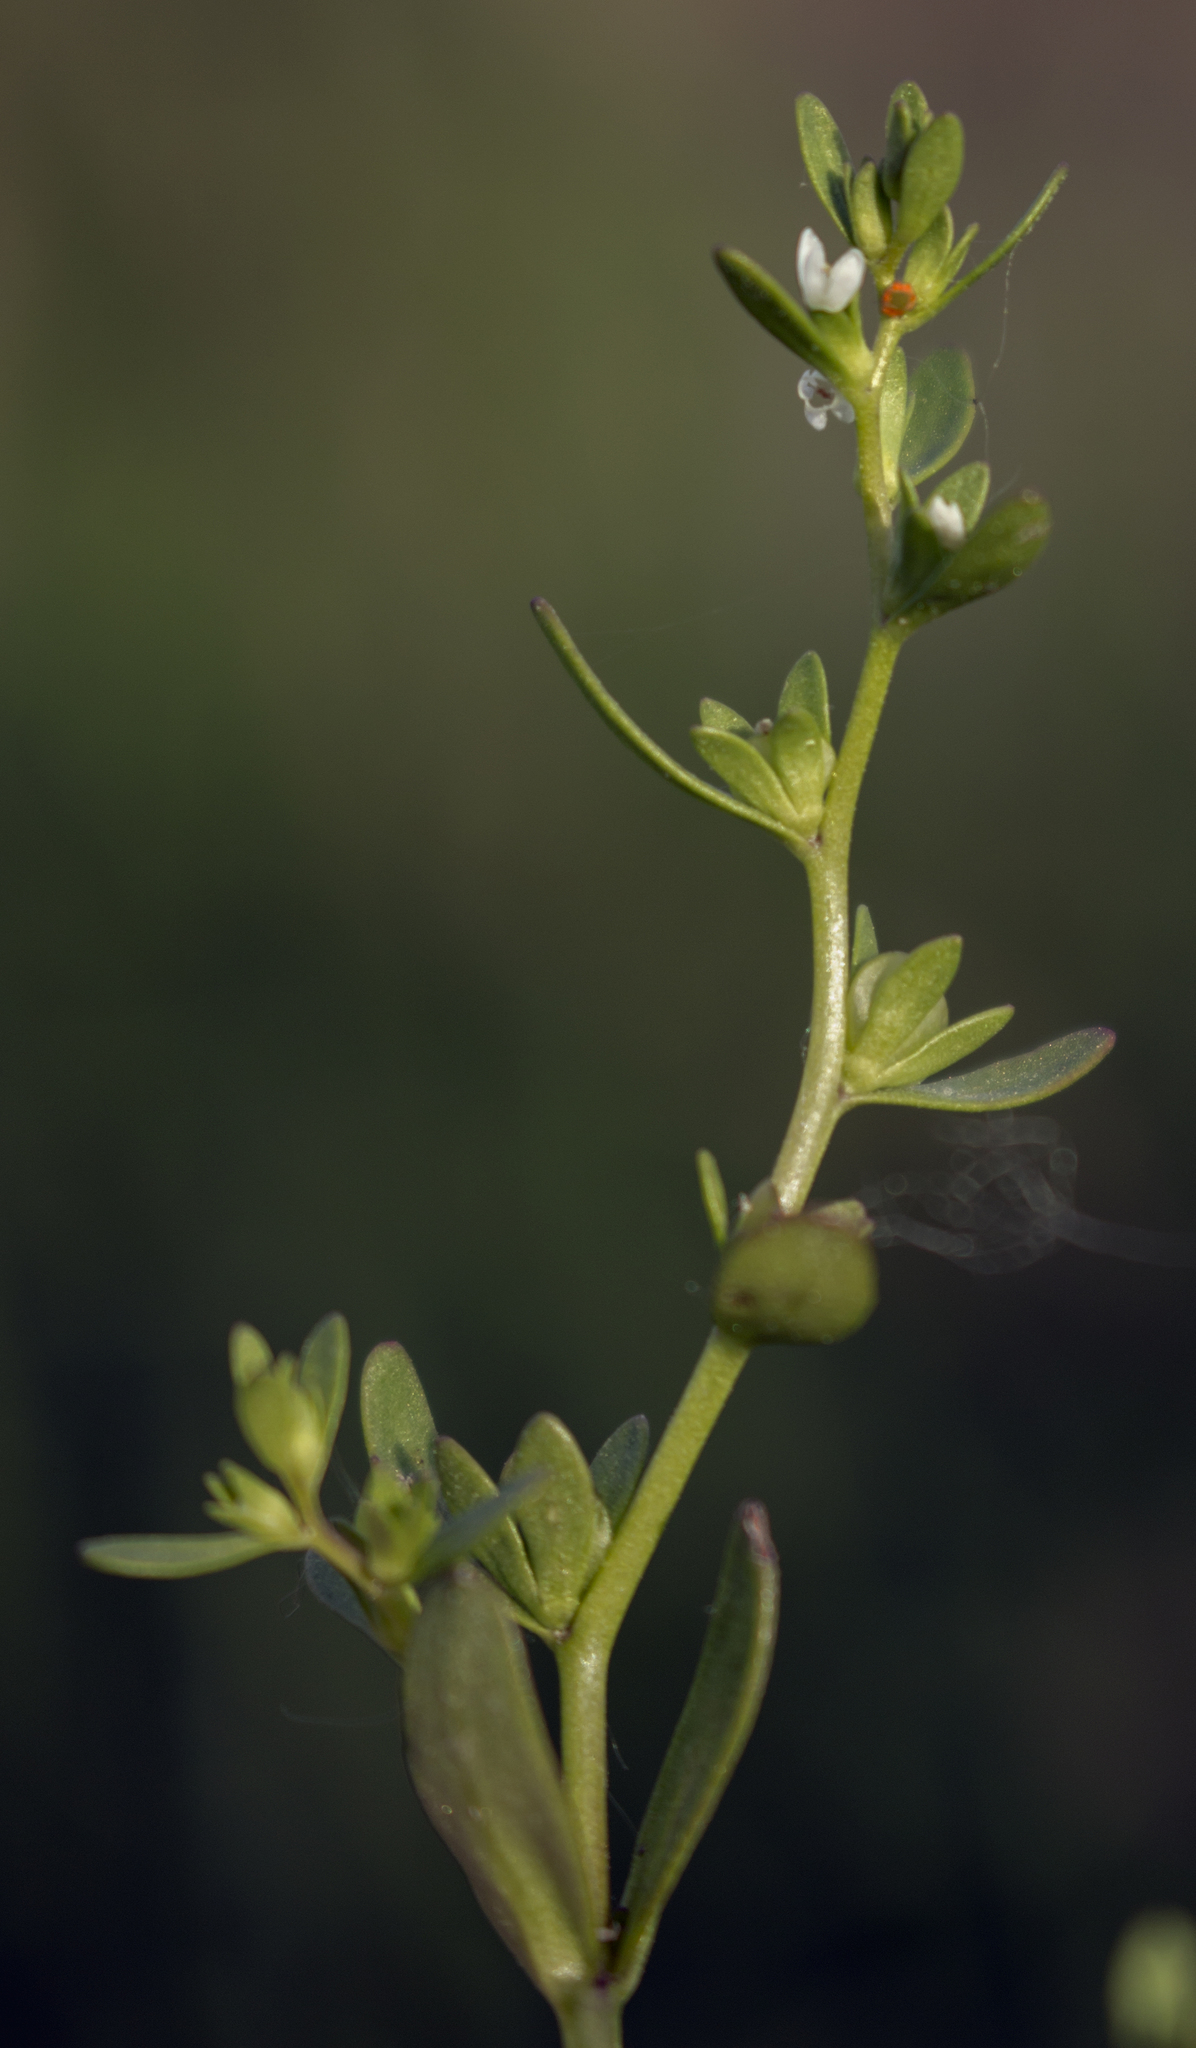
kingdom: Plantae
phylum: Tracheophyta
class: Magnoliopsida
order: Lamiales
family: Plantaginaceae
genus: Veronica
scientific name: Veronica peregrina
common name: Neckweed
